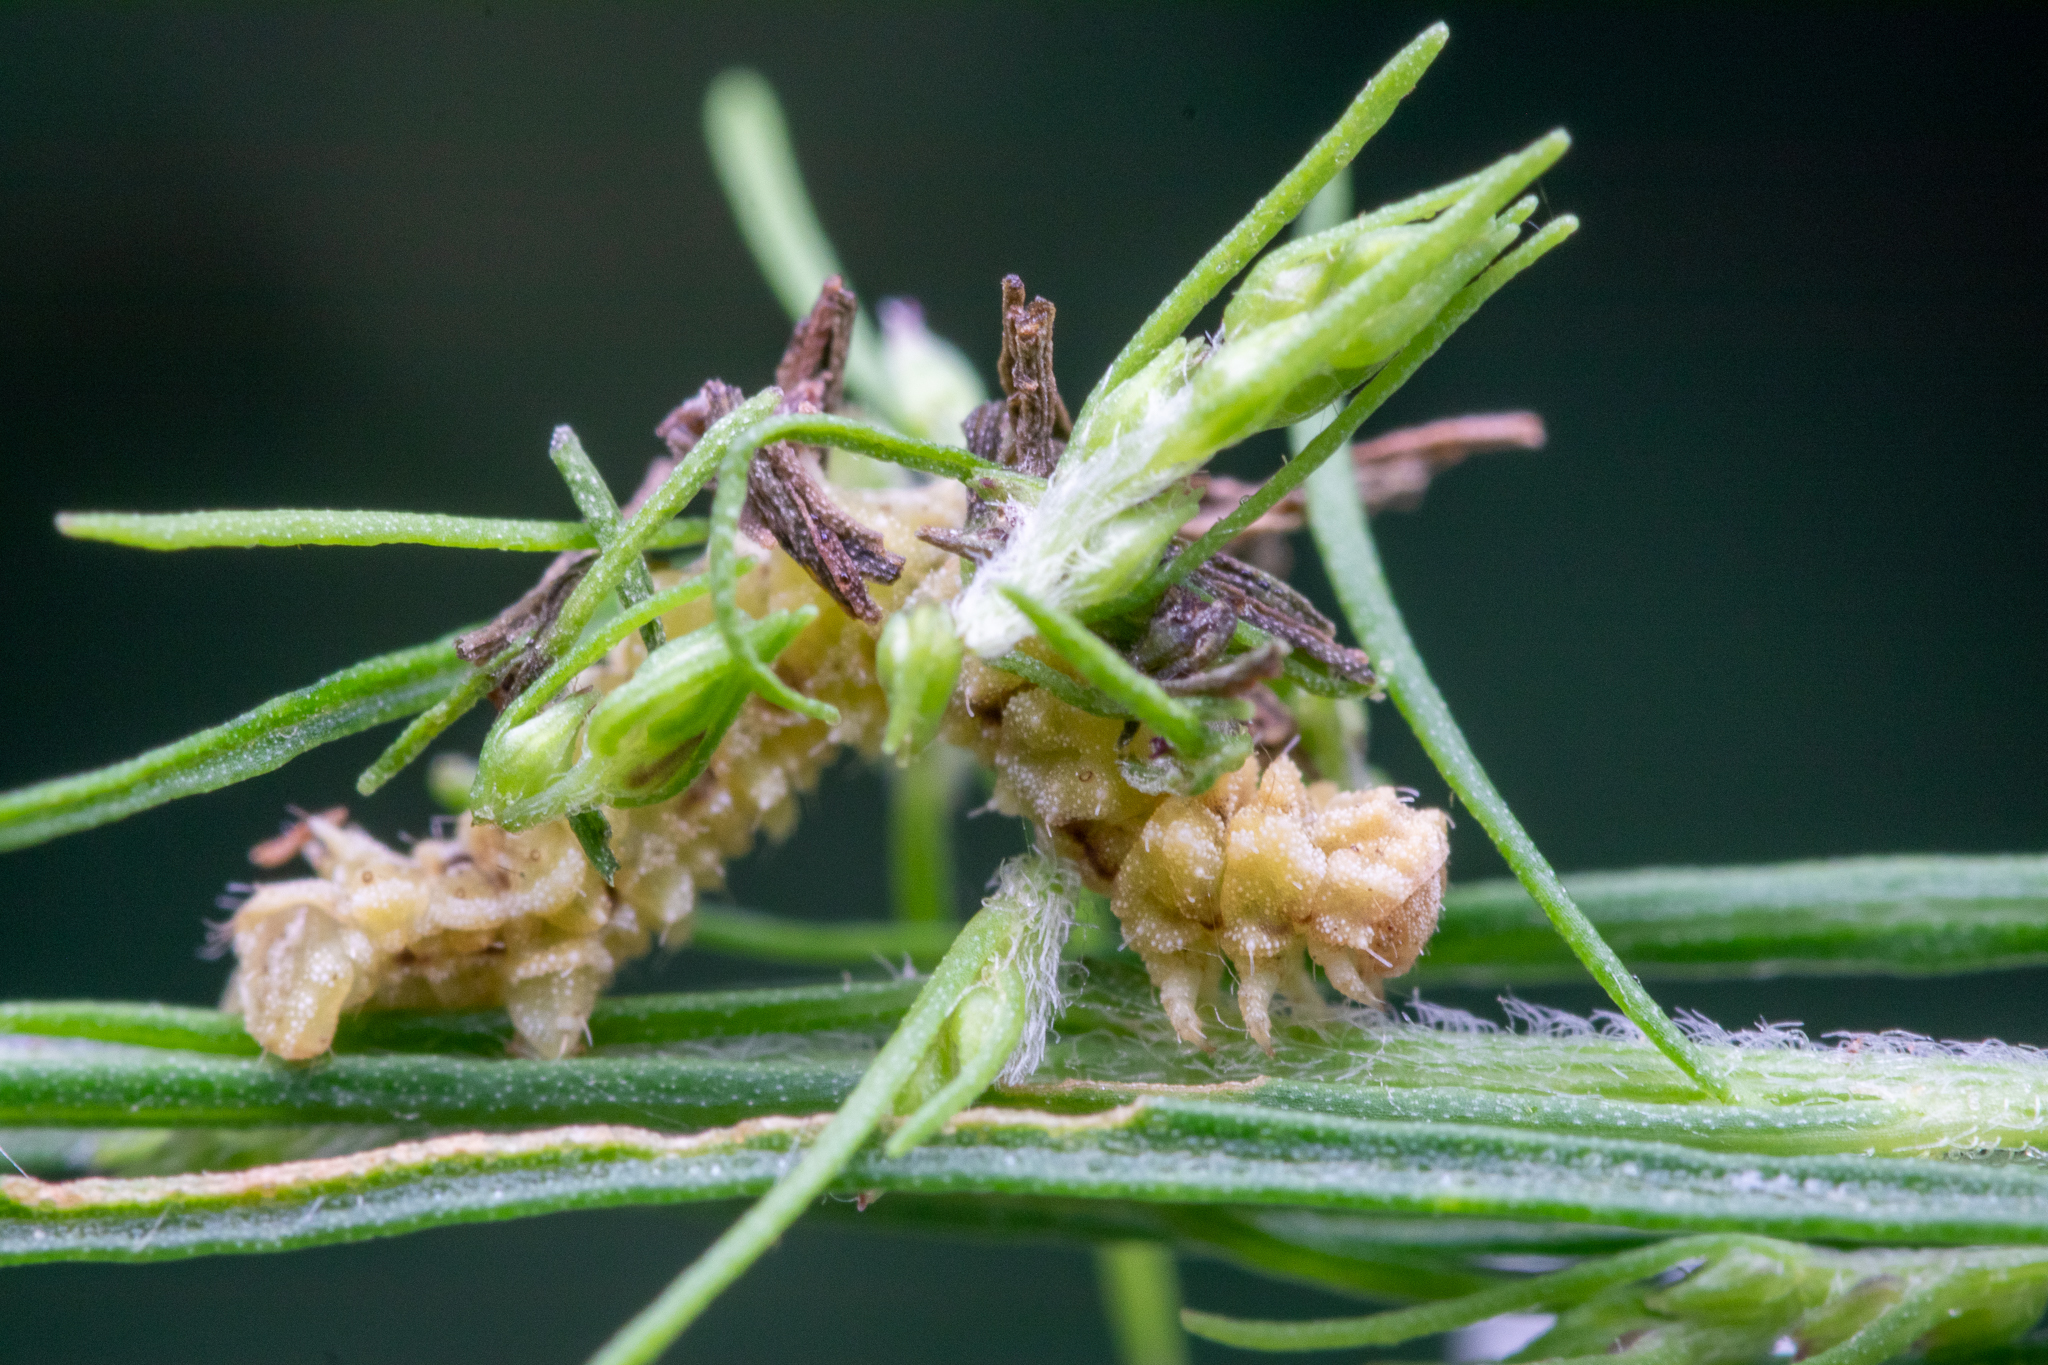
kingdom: Animalia
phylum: Arthropoda
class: Insecta
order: Lepidoptera
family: Geometridae
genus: Synchlora
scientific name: Synchlora
